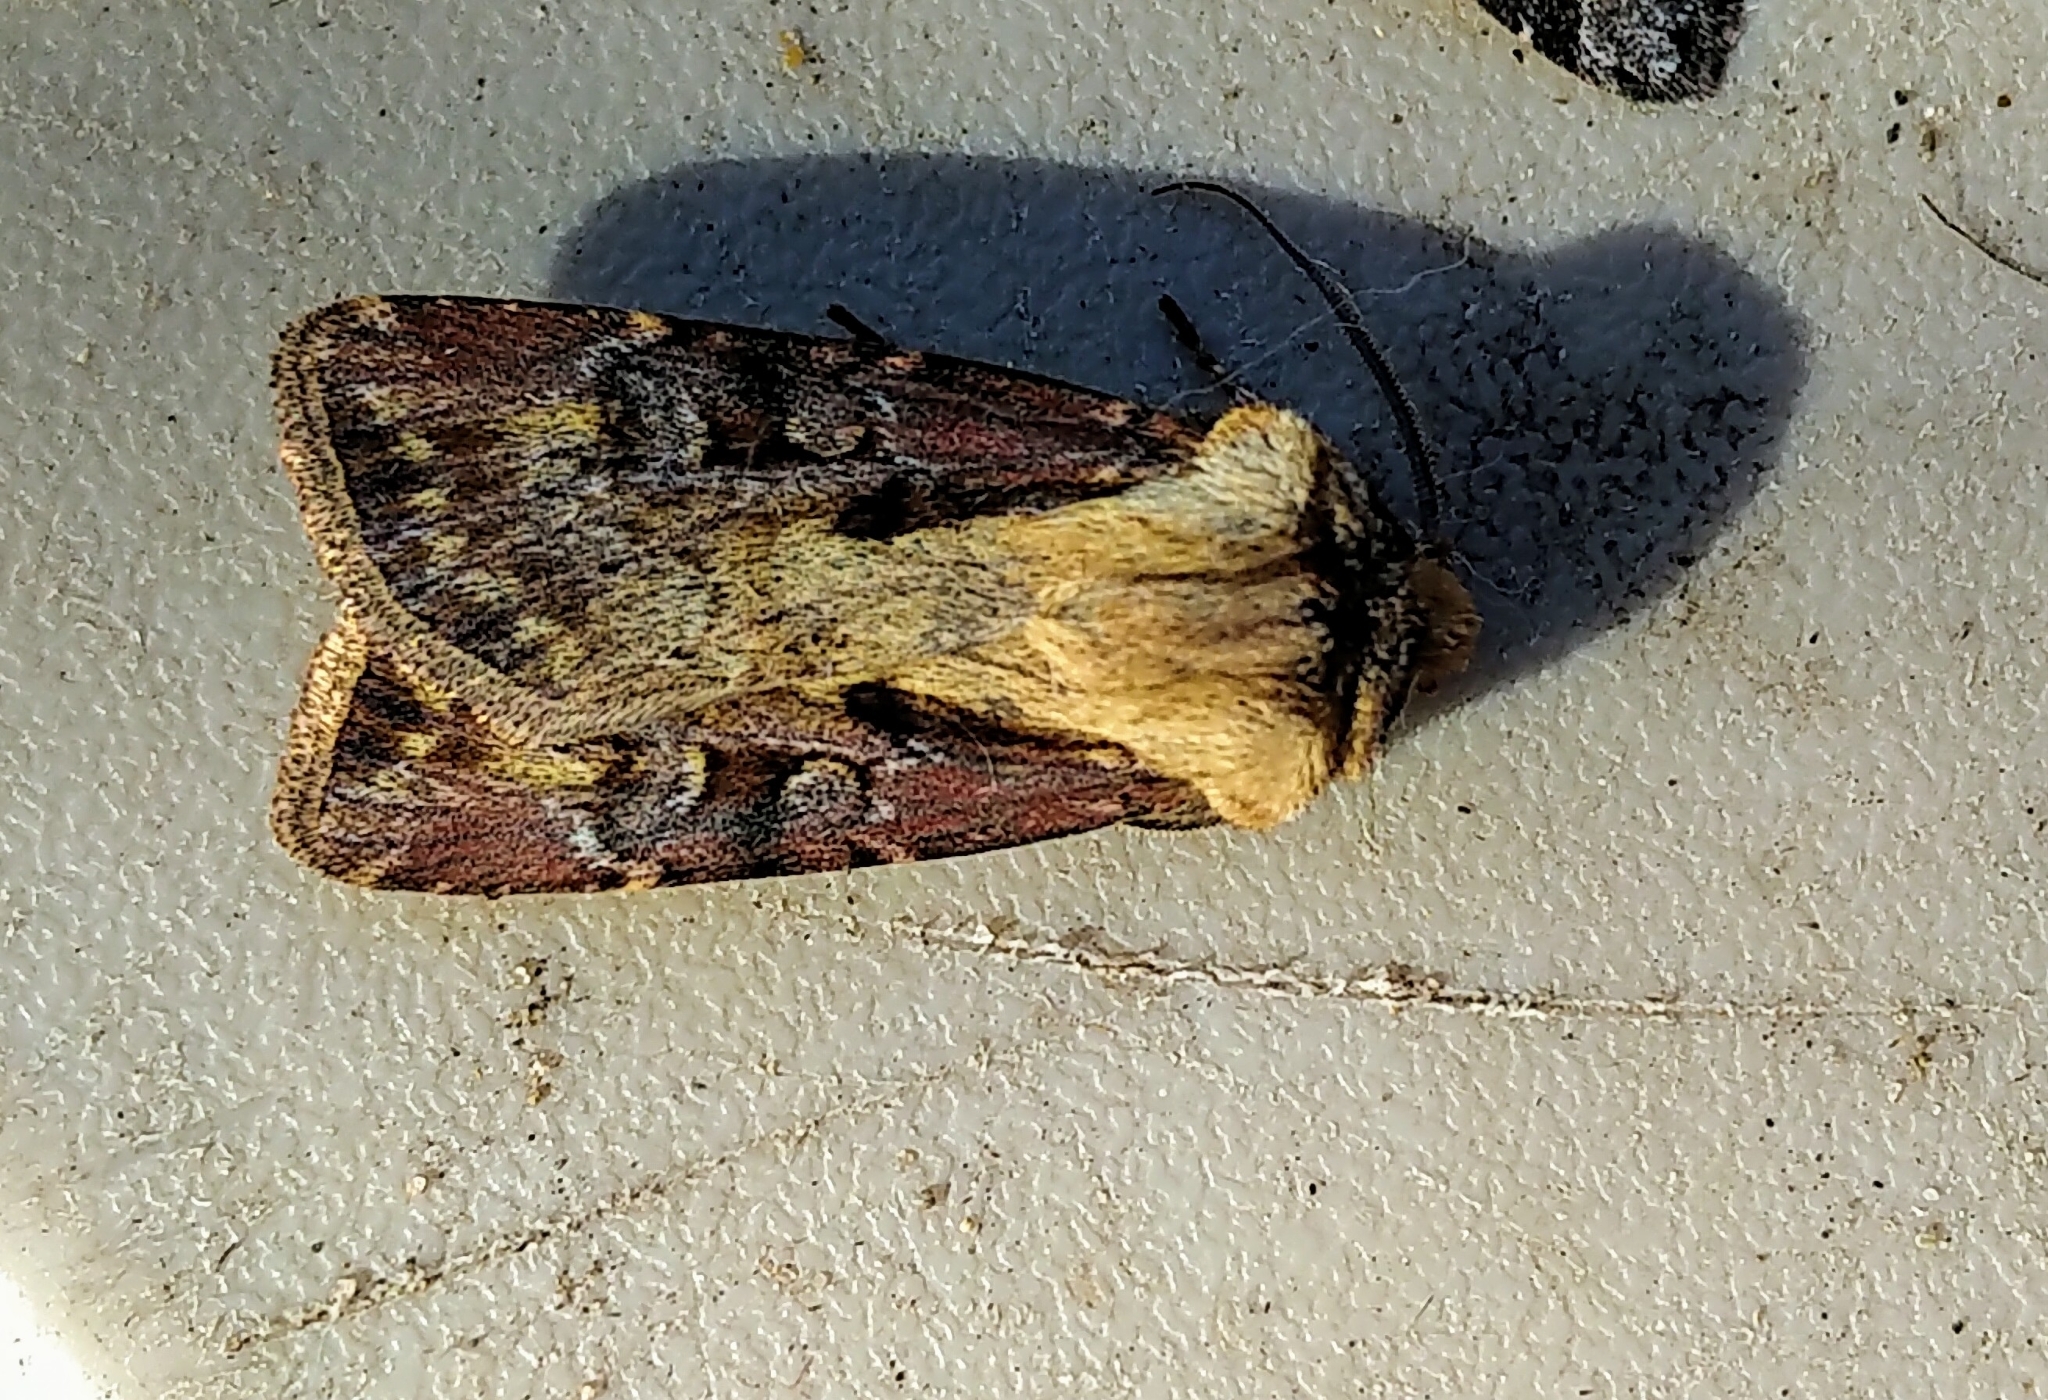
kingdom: Animalia
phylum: Arthropoda
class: Insecta
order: Lepidoptera
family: Noctuidae
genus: Agrotis
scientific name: Agrotis vancouverensis
